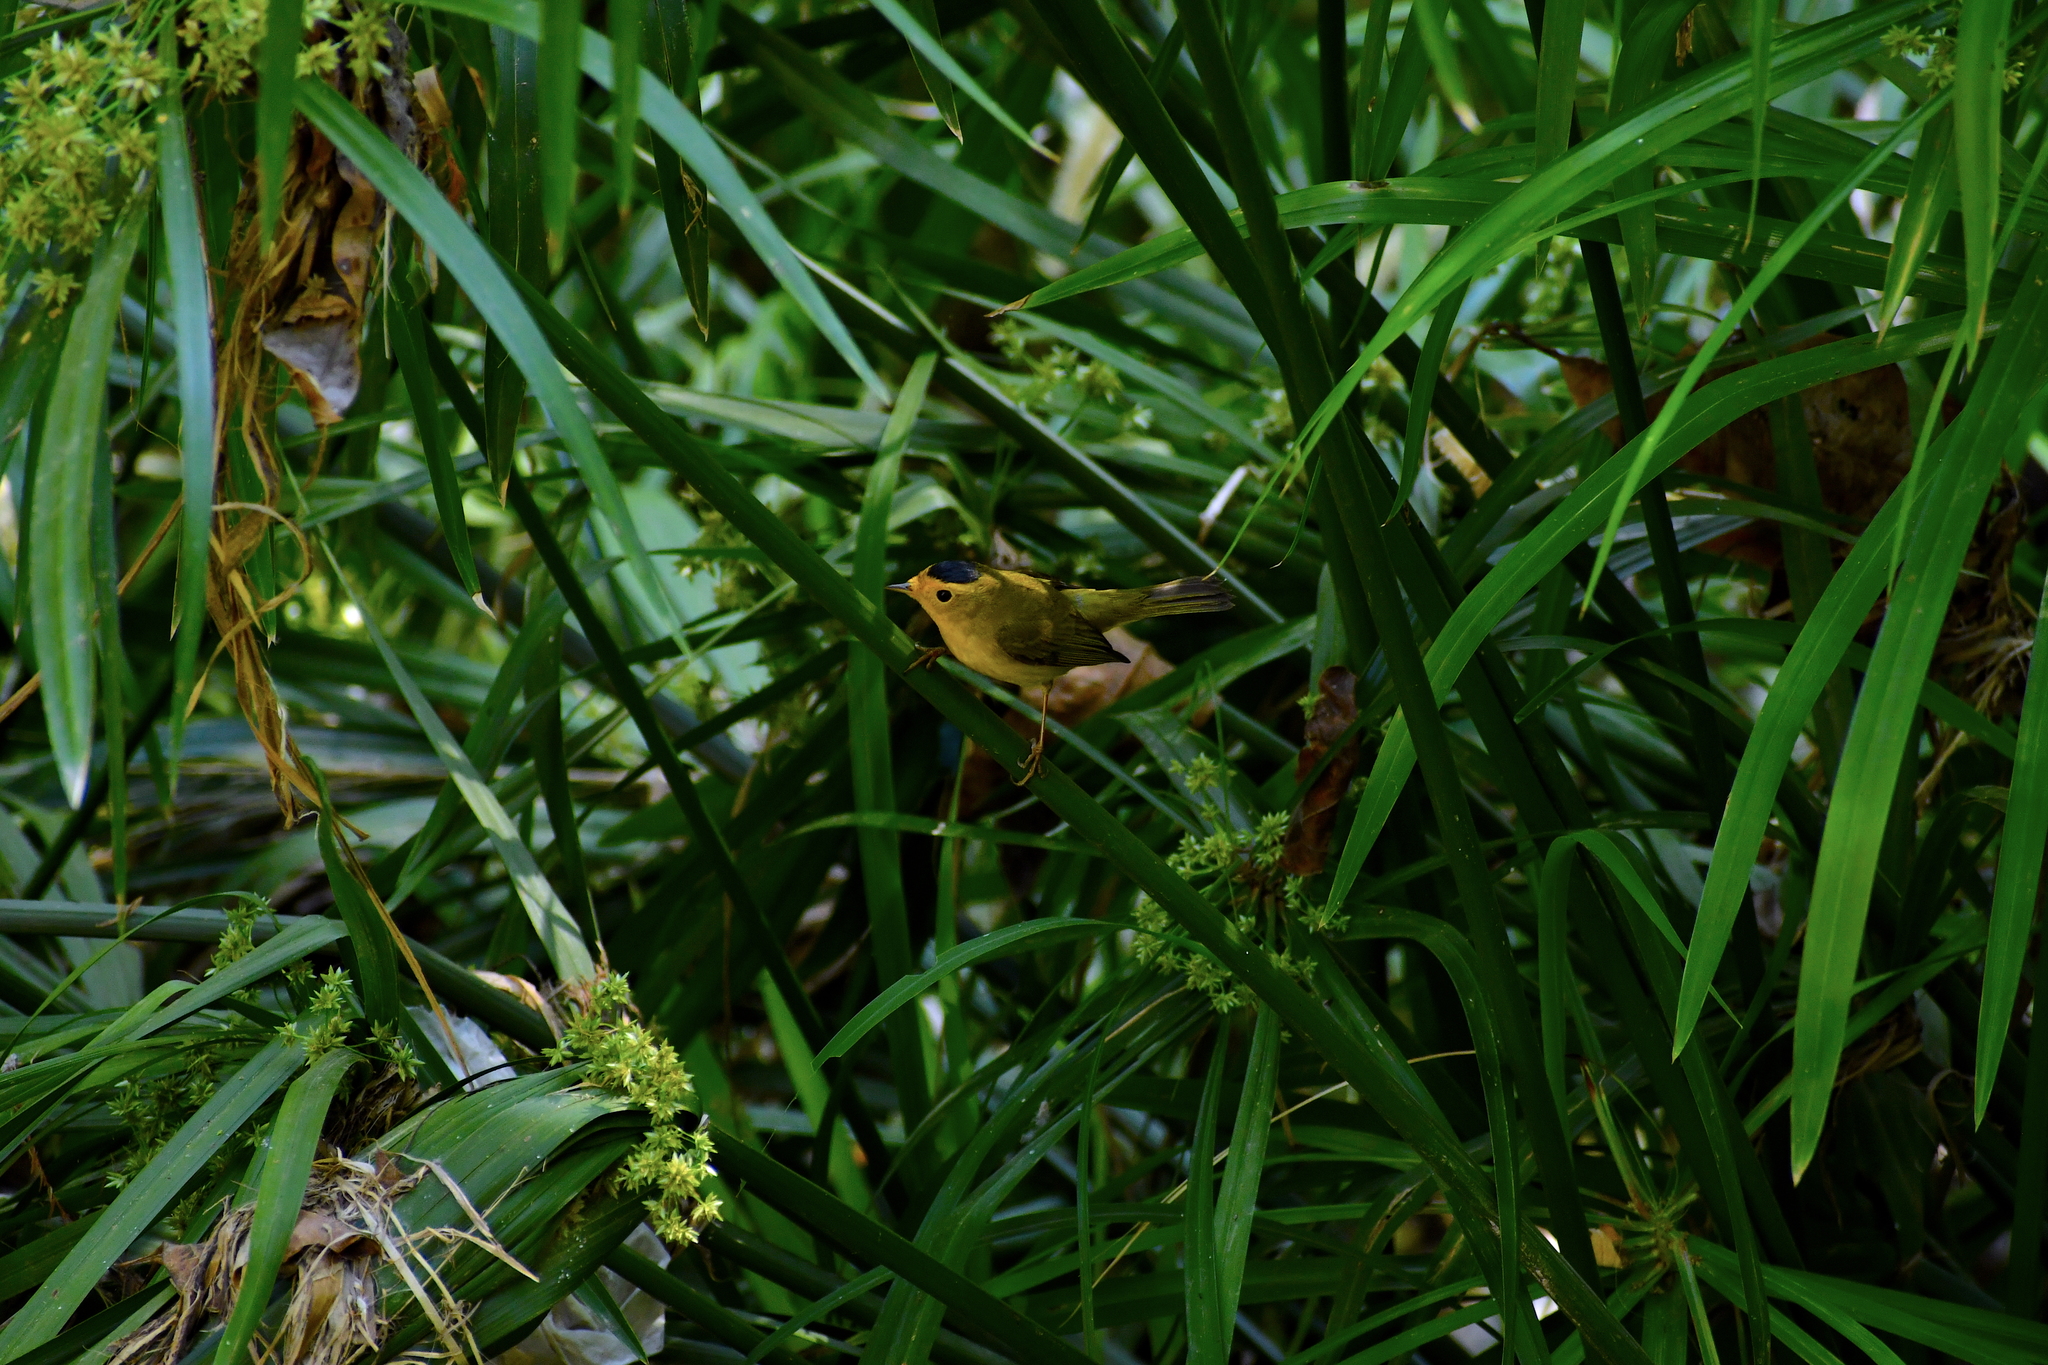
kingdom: Animalia
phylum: Chordata
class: Aves
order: Passeriformes
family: Parulidae
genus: Cardellina
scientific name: Cardellina pusilla
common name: Wilson's warbler
